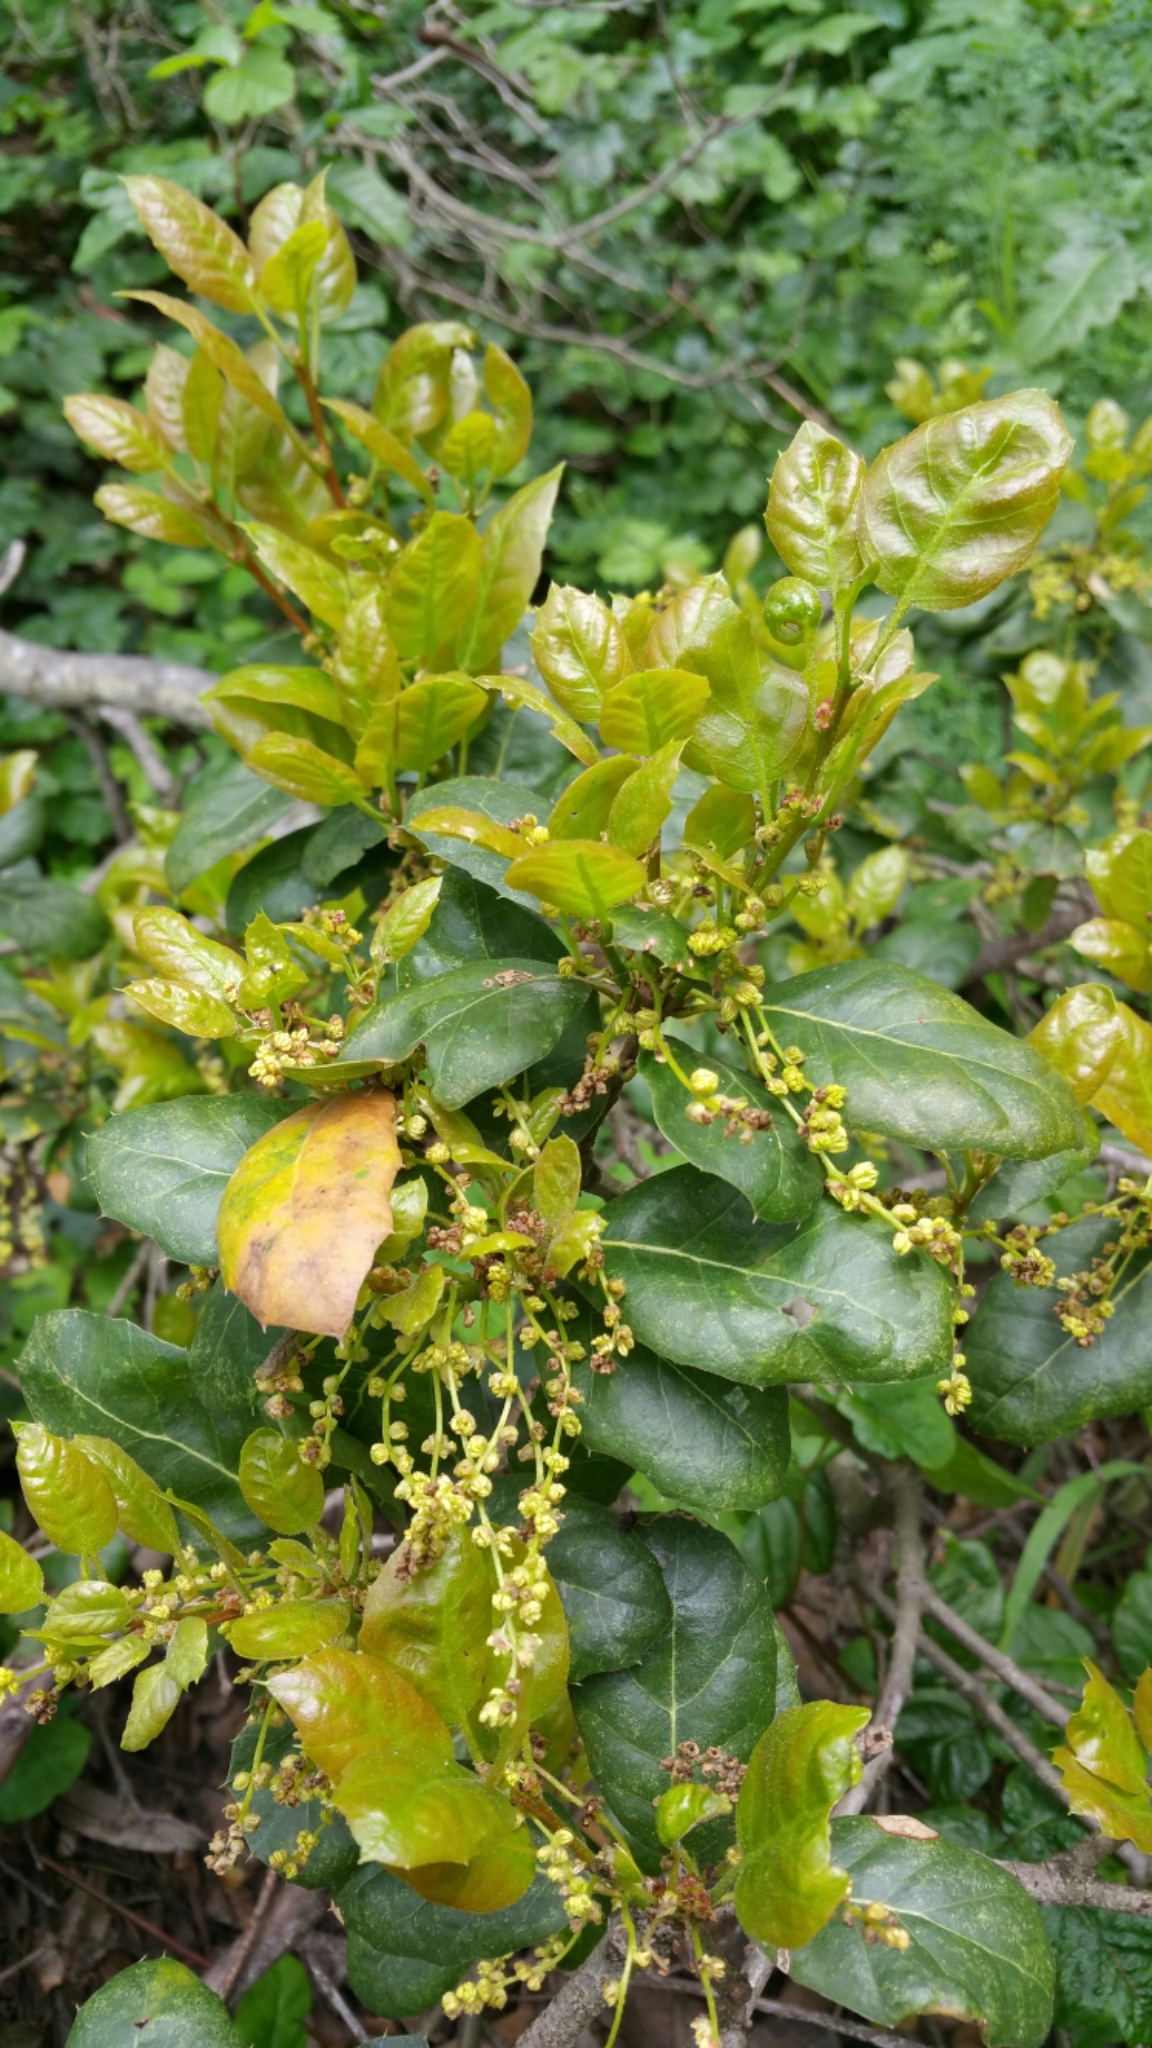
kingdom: Plantae
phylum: Tracheophyta
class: Magnoliopsida
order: Fagales
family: Fagaceae
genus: Quercus
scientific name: Quercus agrifolia
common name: California live oak
